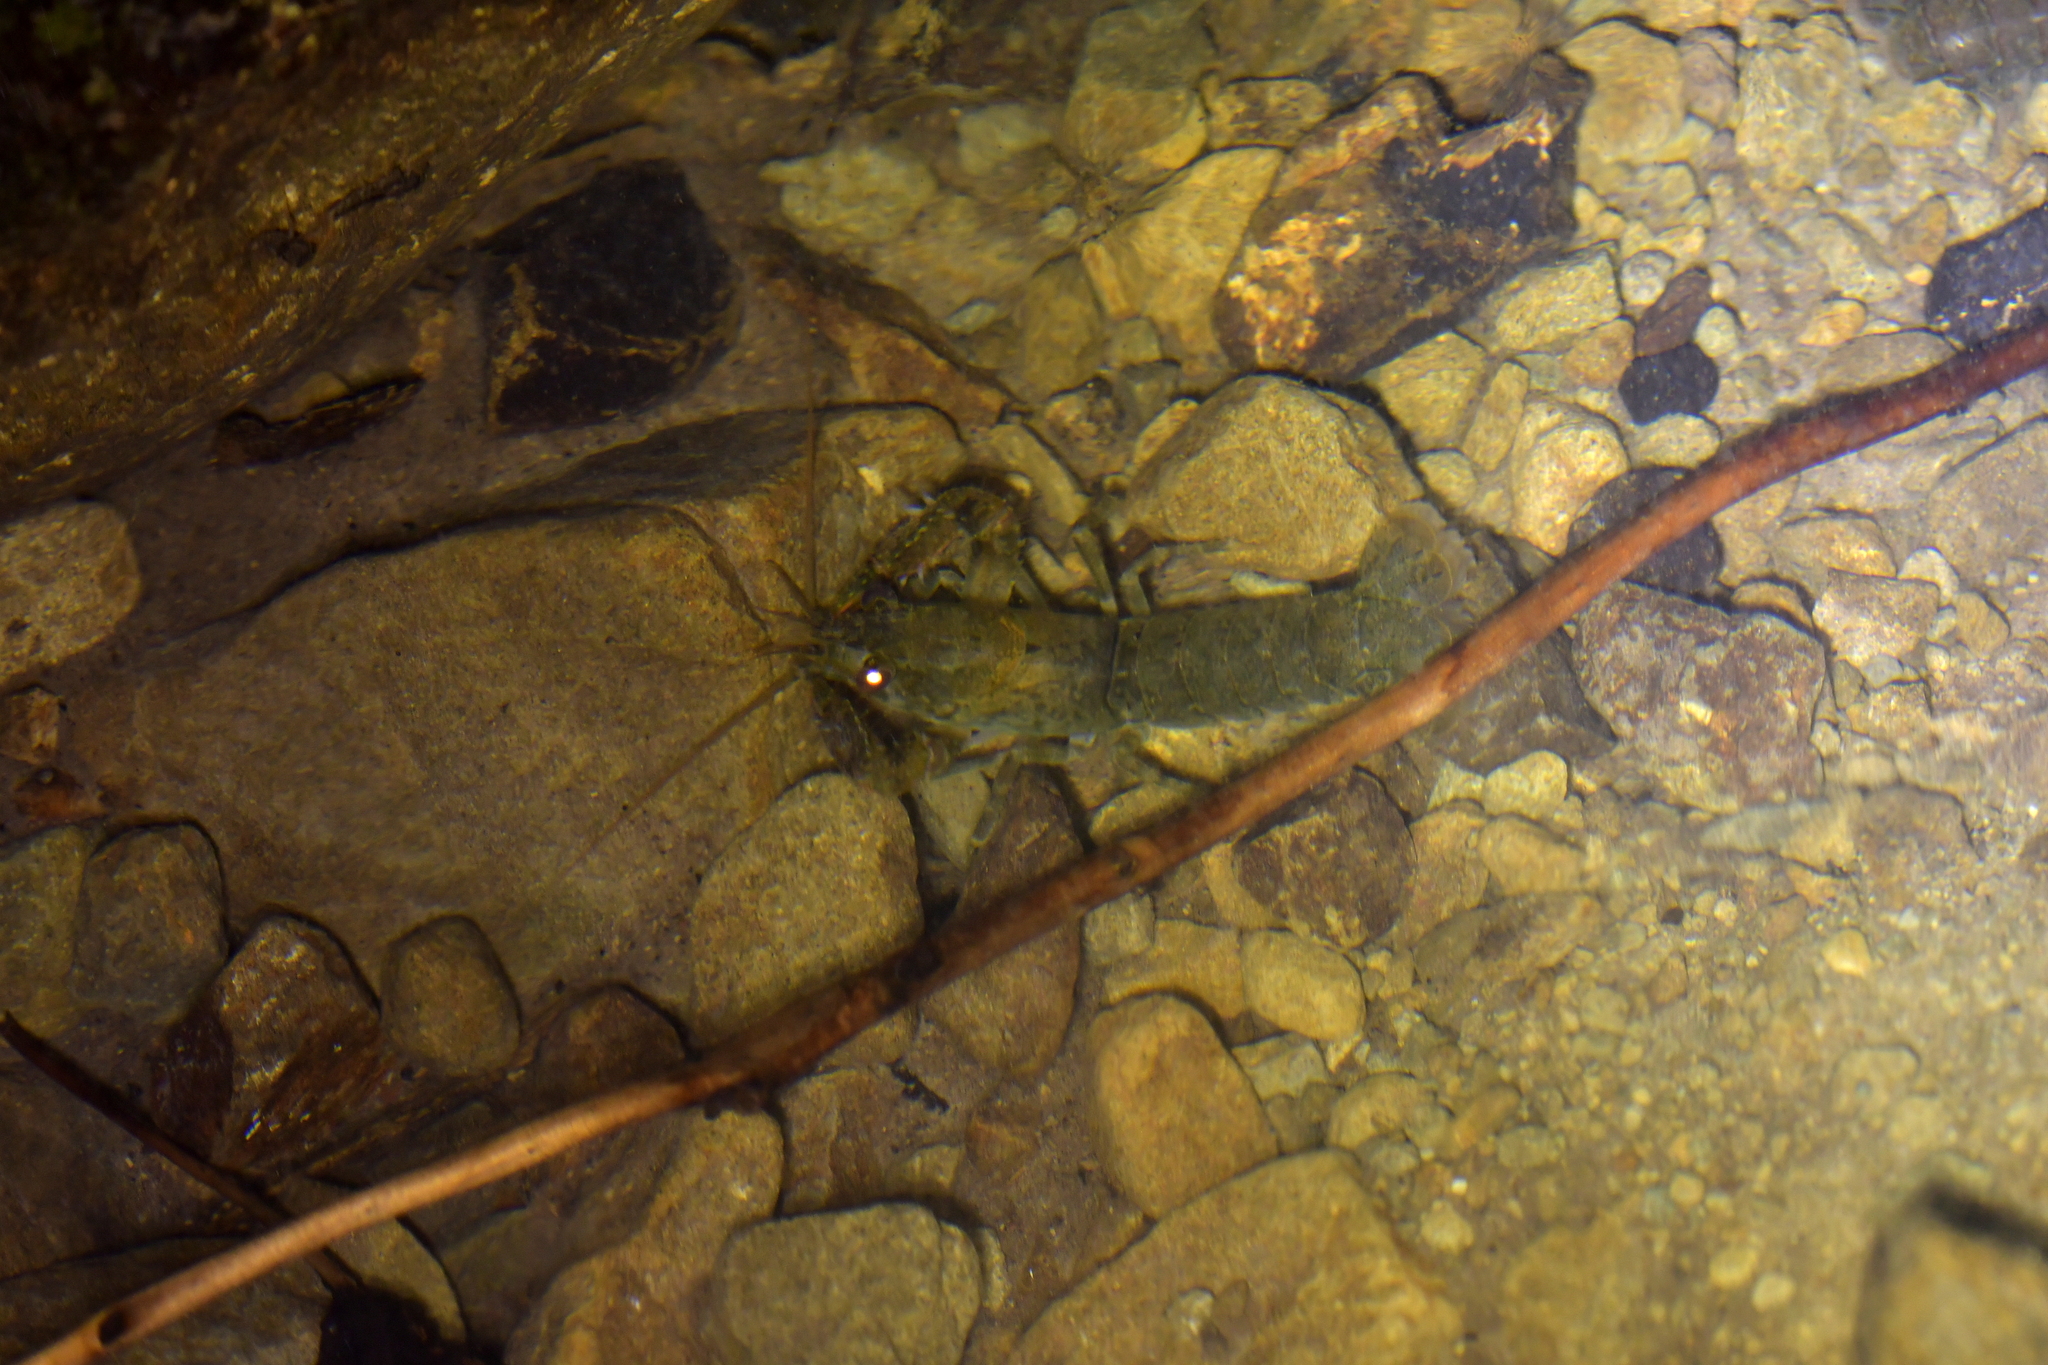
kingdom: Animalia
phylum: Arthropoda
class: Malacostraca
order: Decapoda
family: Parastacidae
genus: Paranephrops
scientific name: Paranephrops planifrons
